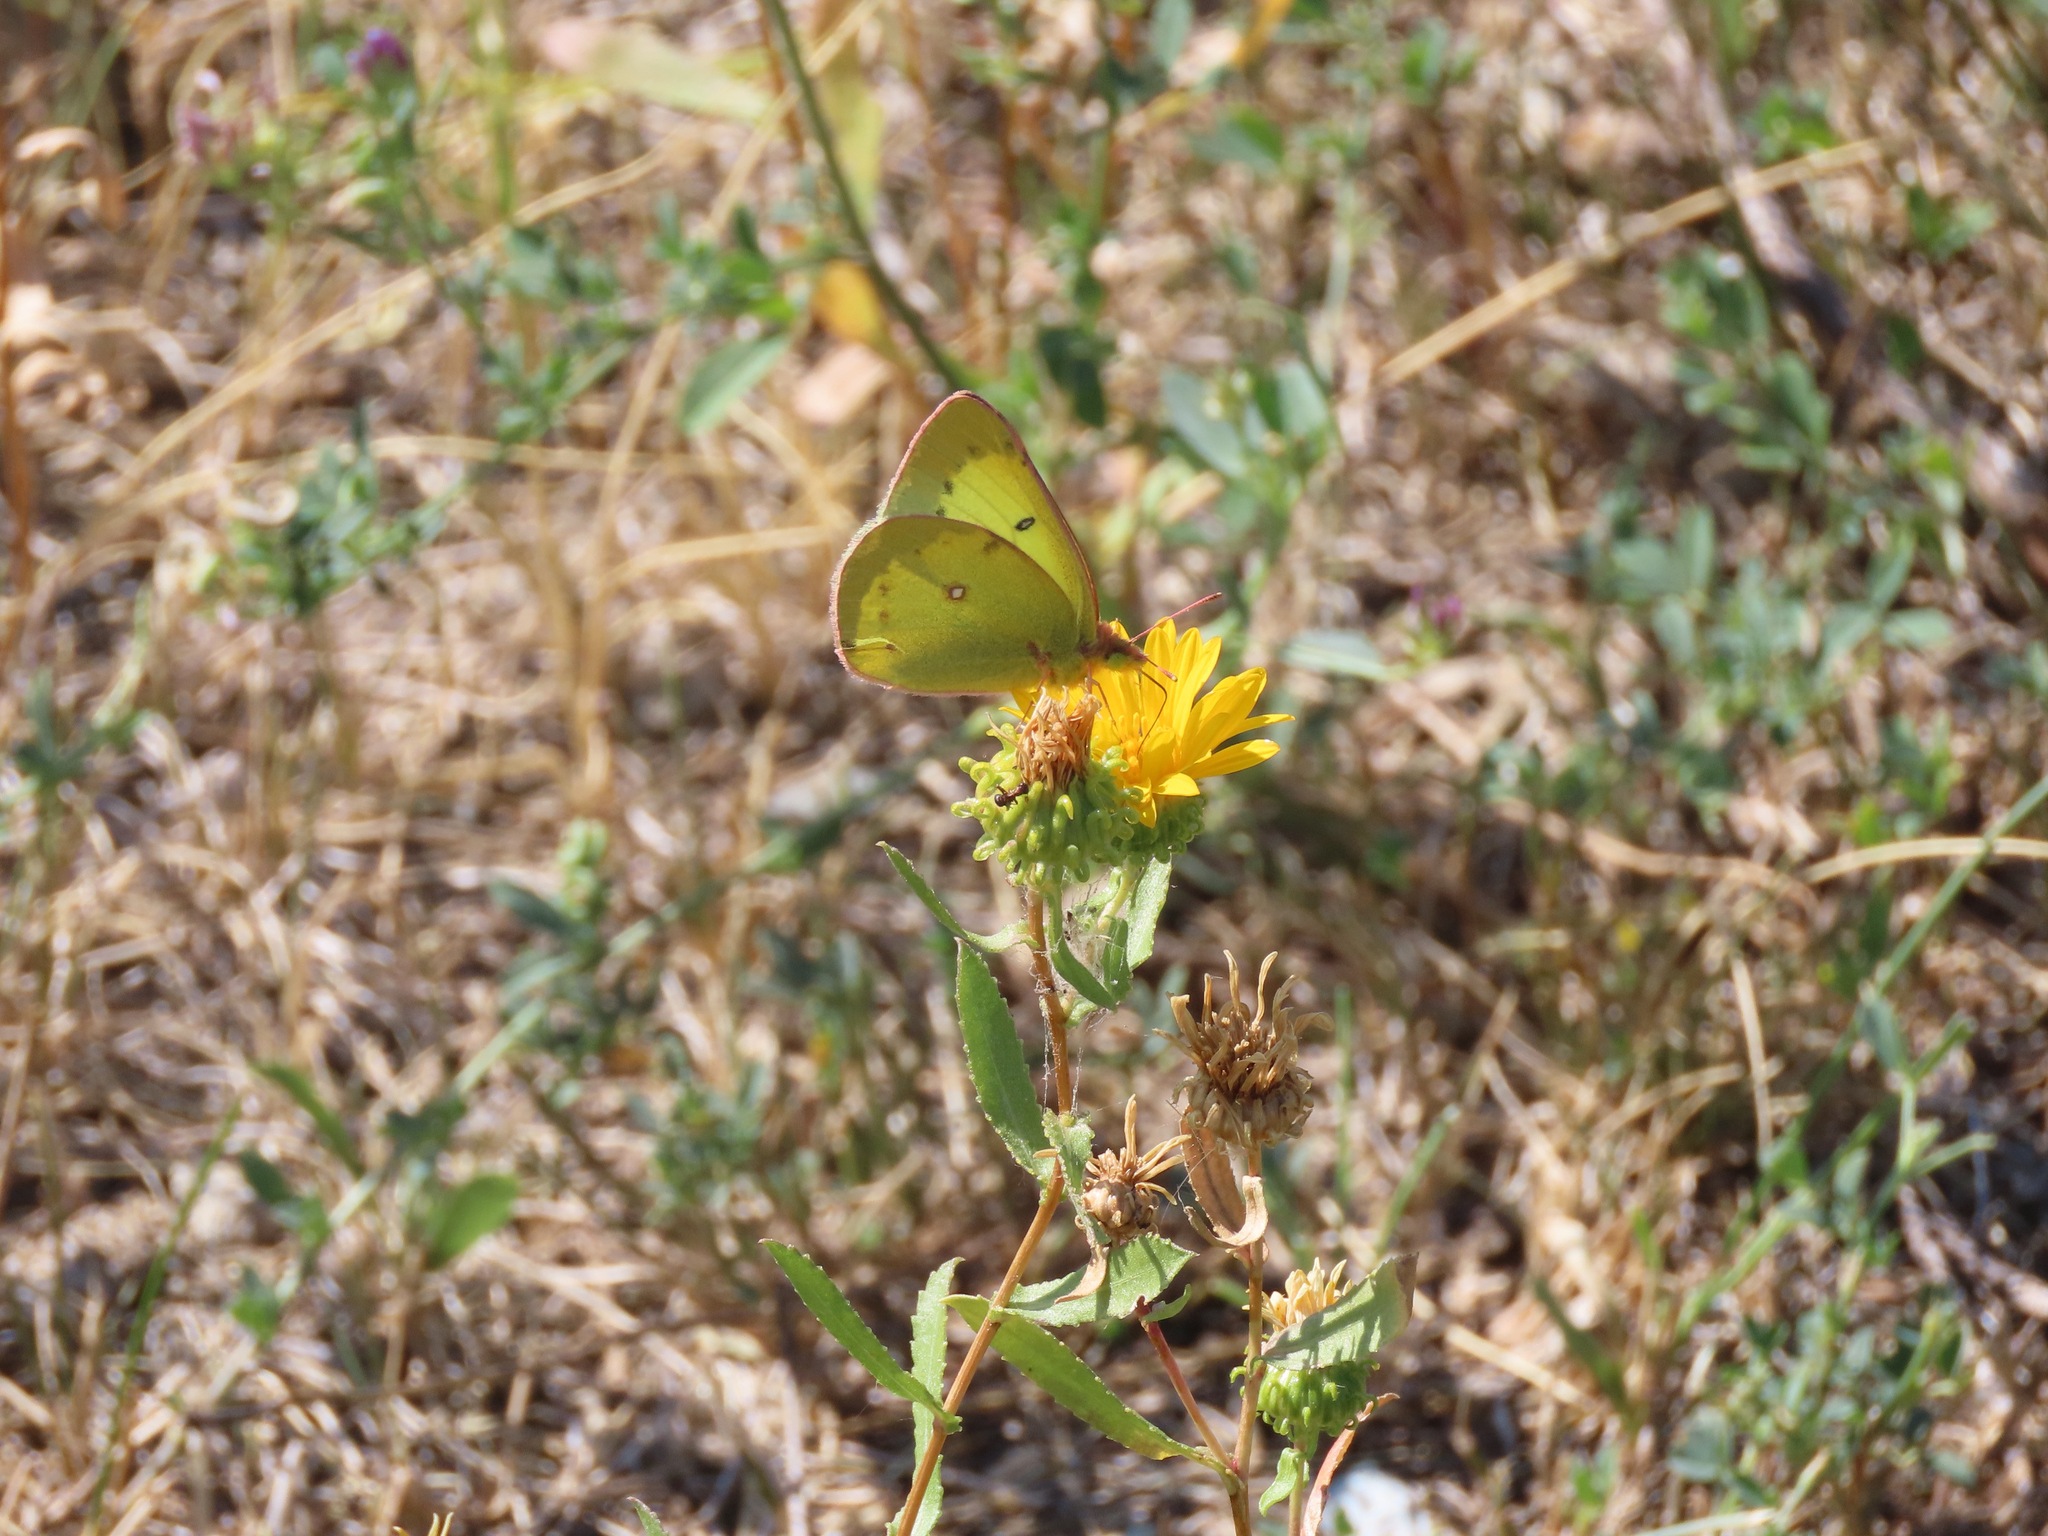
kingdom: Animalia
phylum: Arthropoda
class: Insecta
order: Lepidoptera
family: Pieridae
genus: Colias
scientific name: Colias philodice
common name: Clouded sulphur
